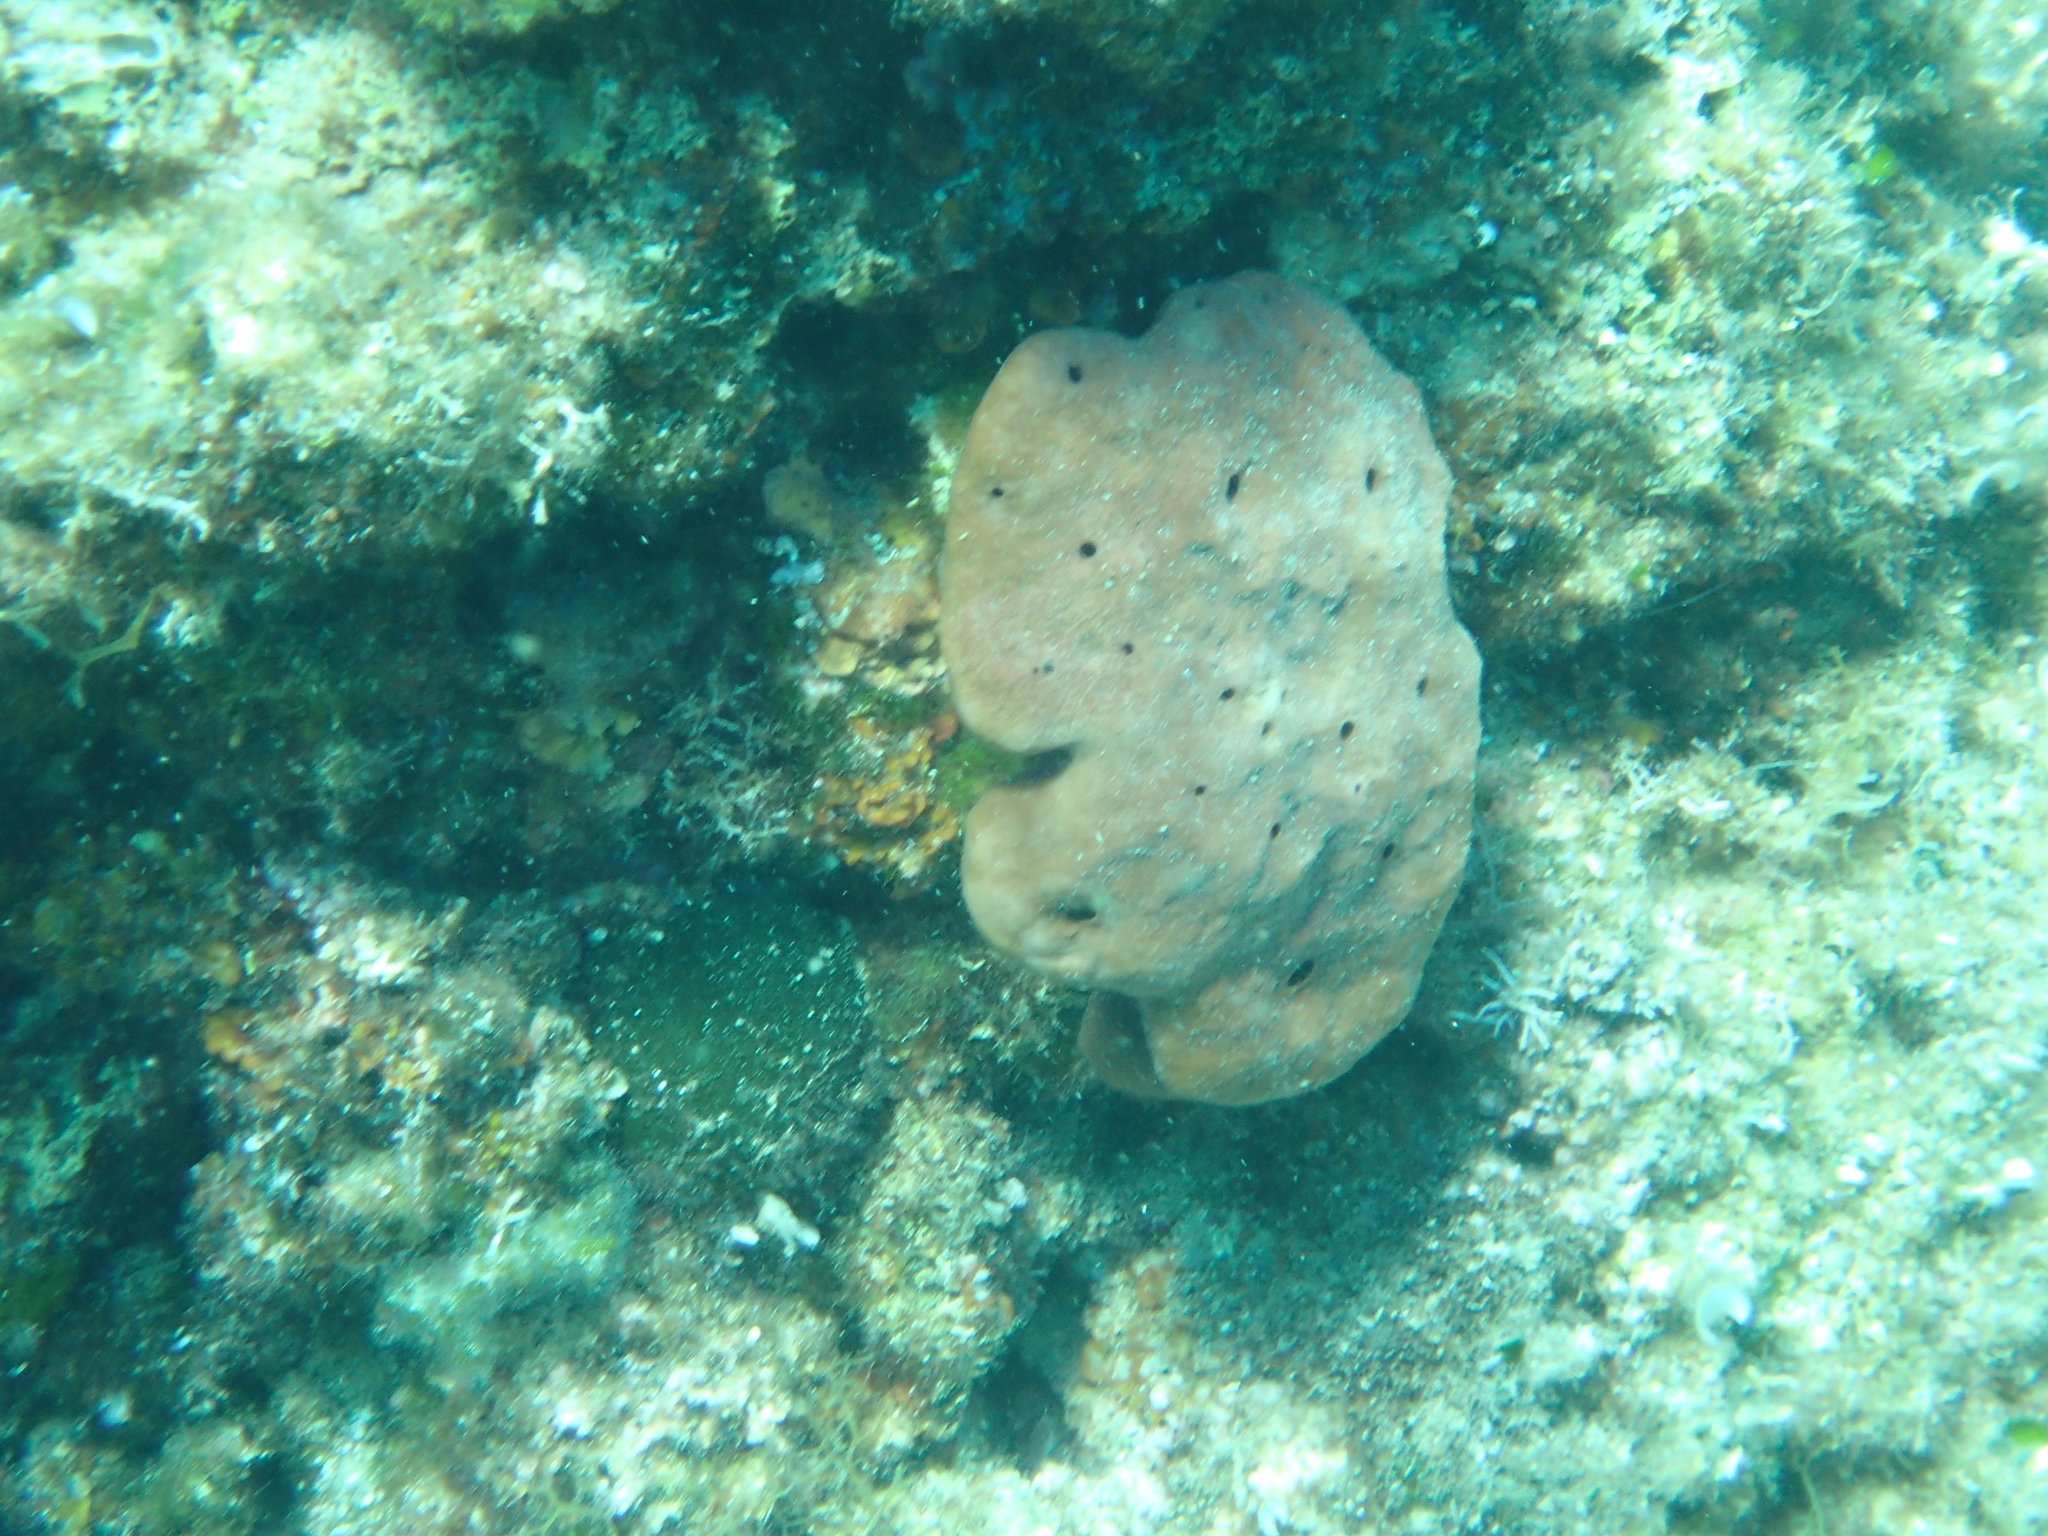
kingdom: Animalia
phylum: Porifera
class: Demospongiae
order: Haplosclerida
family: Petrosiidae
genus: Petrosia
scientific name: Petrosia ficiformis
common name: Stony sponge
